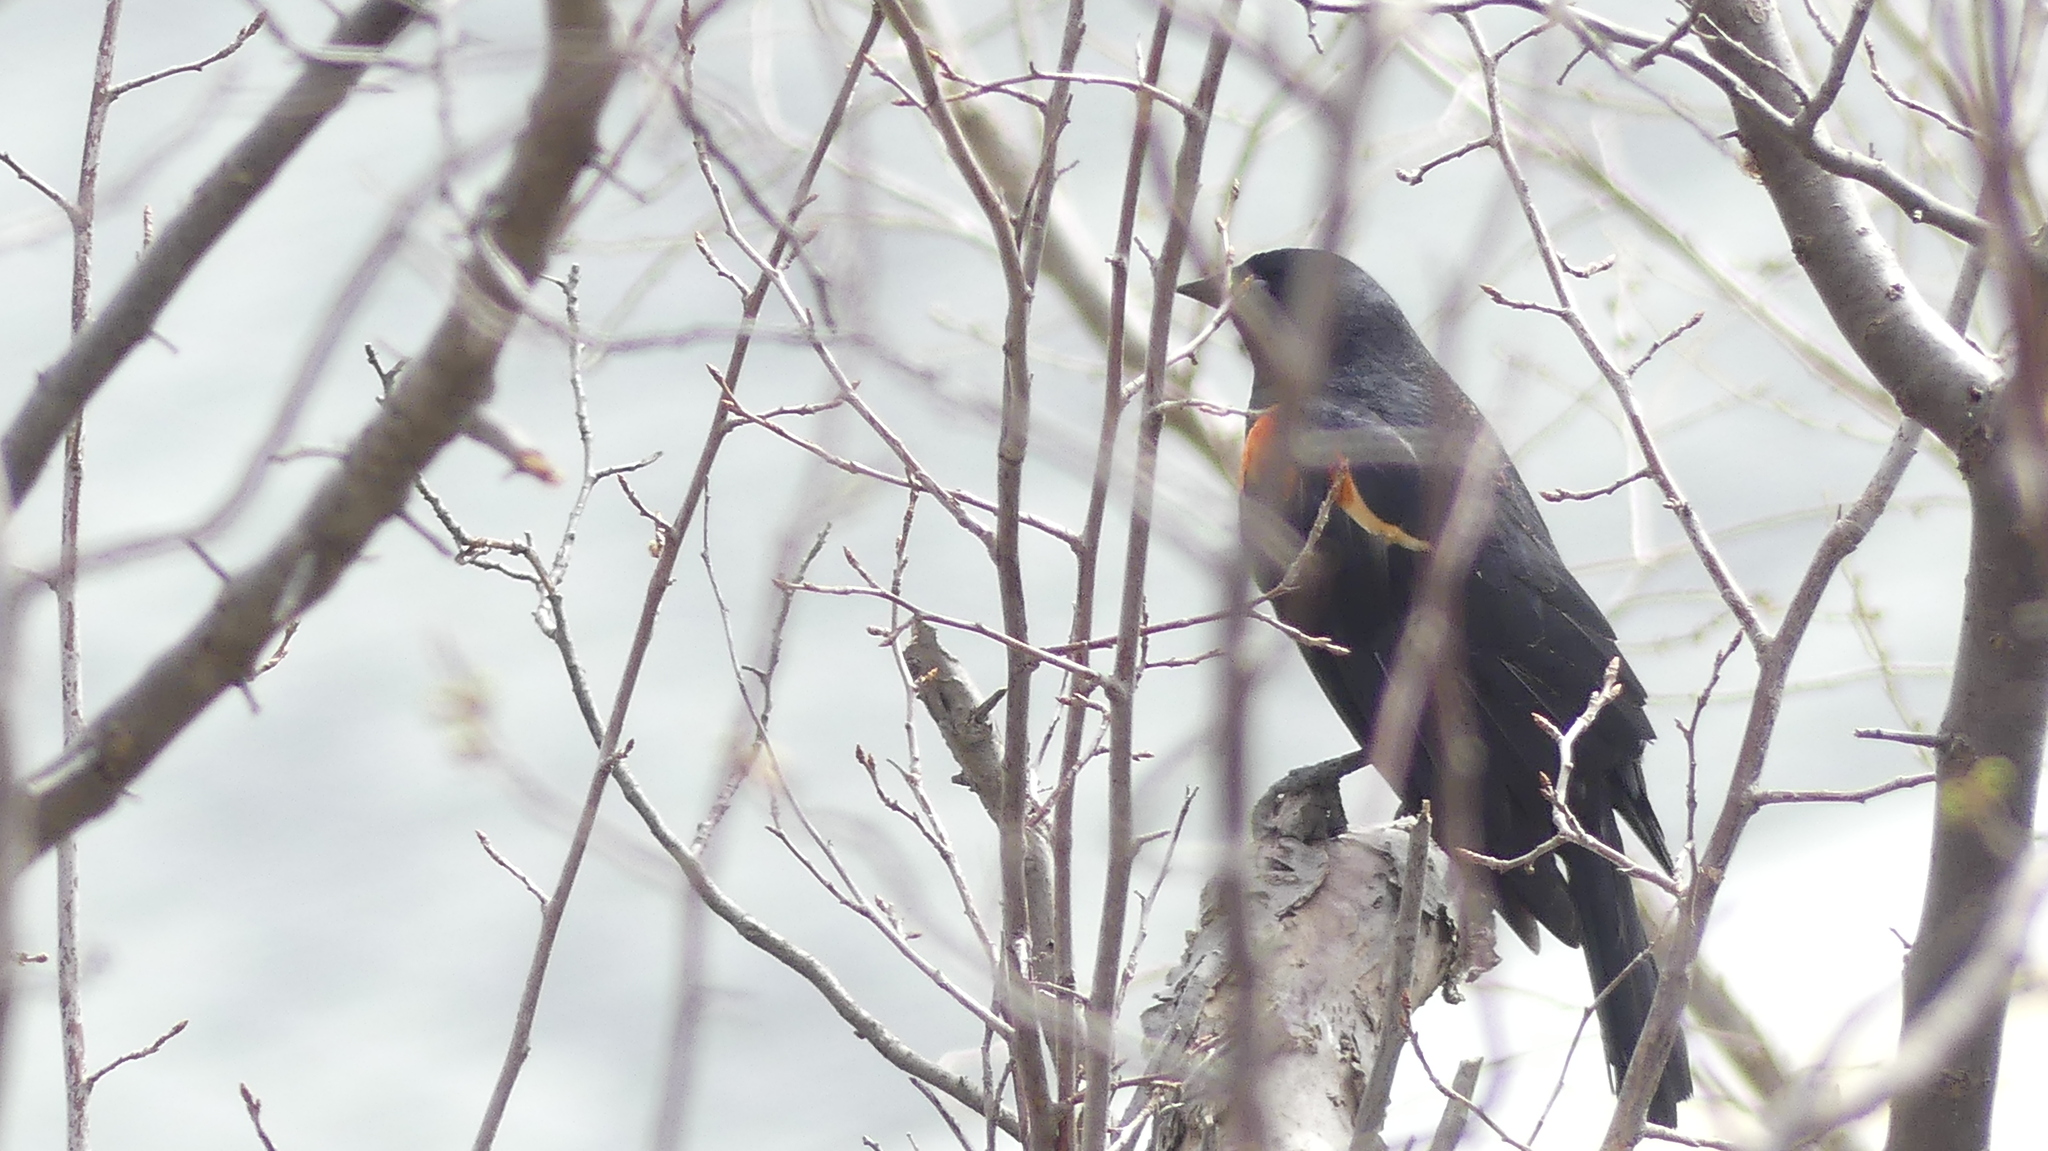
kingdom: Animalia
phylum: Chordata
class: Aves
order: Passeriformes
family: Icteridae
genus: Agelaius
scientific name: Agelaius phoeniceus
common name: Red-winged blackbird
